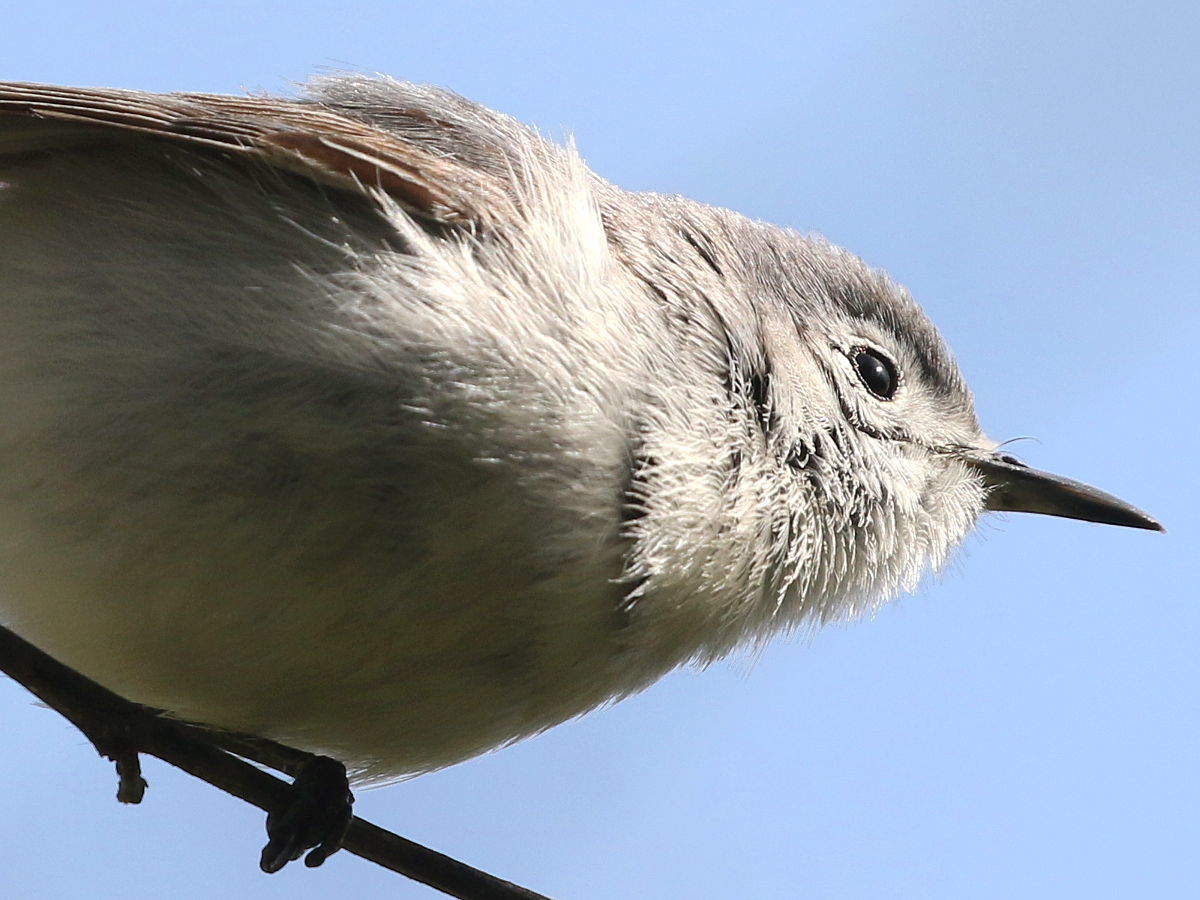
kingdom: Animalia
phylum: Chordata
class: Aves
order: Passeriformes
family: Polioptilidae
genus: Polioptila
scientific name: Polioptila caerulea
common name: Blue-gray gnatcatcher
